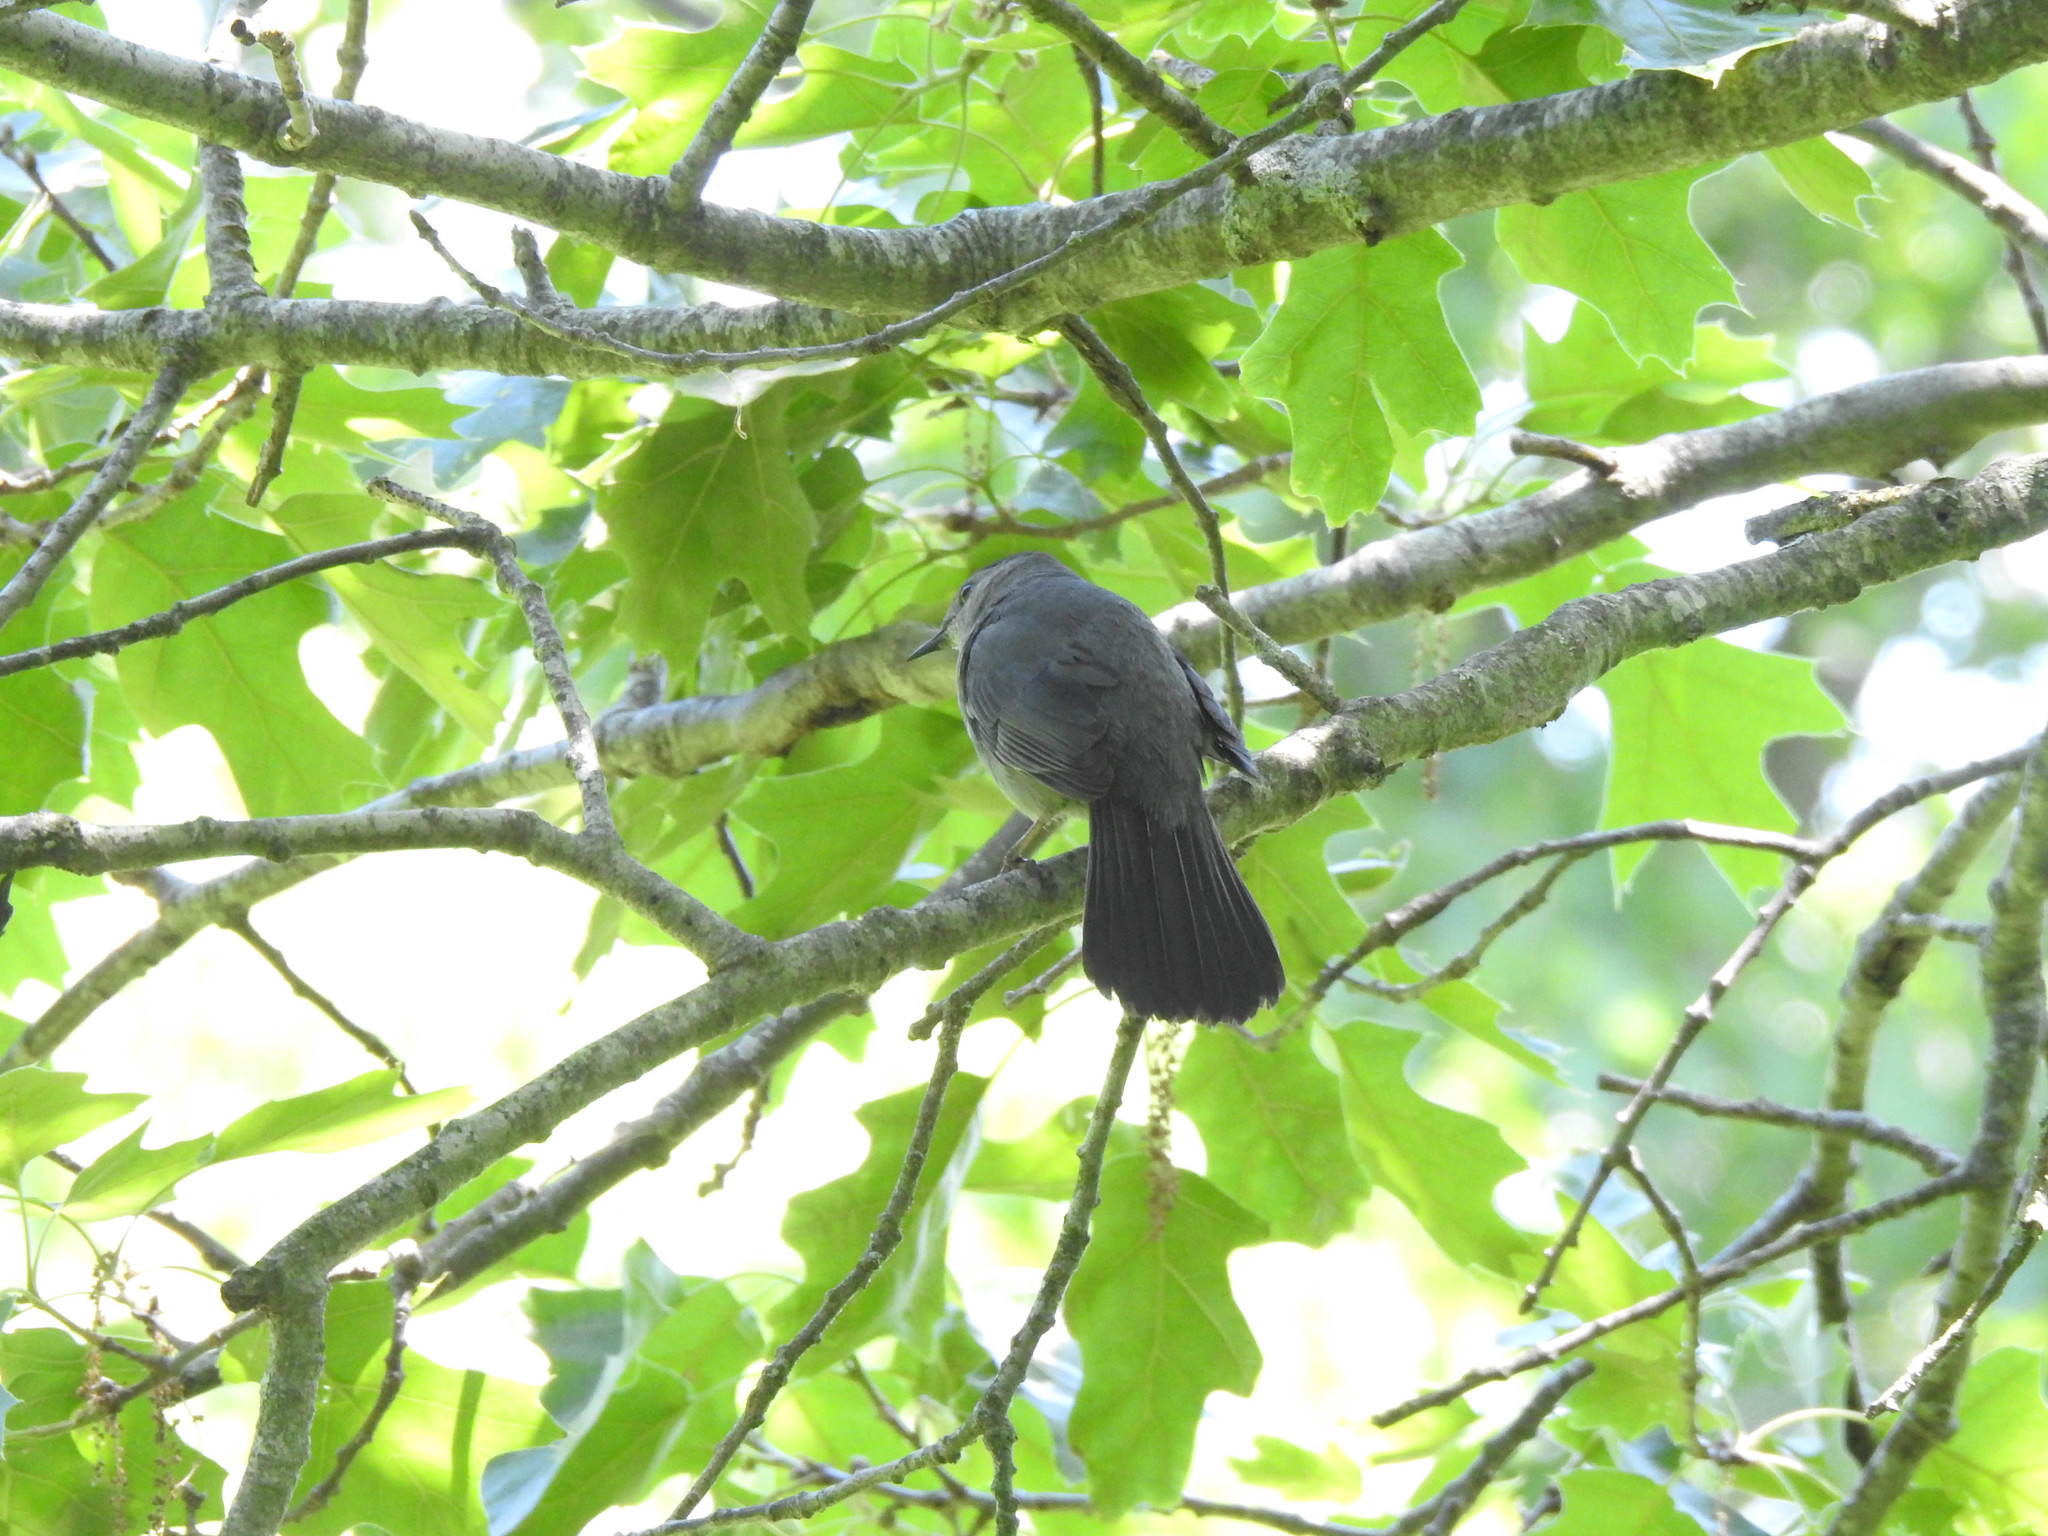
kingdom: Animalia
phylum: Chordata
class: Aves
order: Passeriformes
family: Mimidae
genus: Dumetella
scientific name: Dumetella carolinensis
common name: Gray catbird
